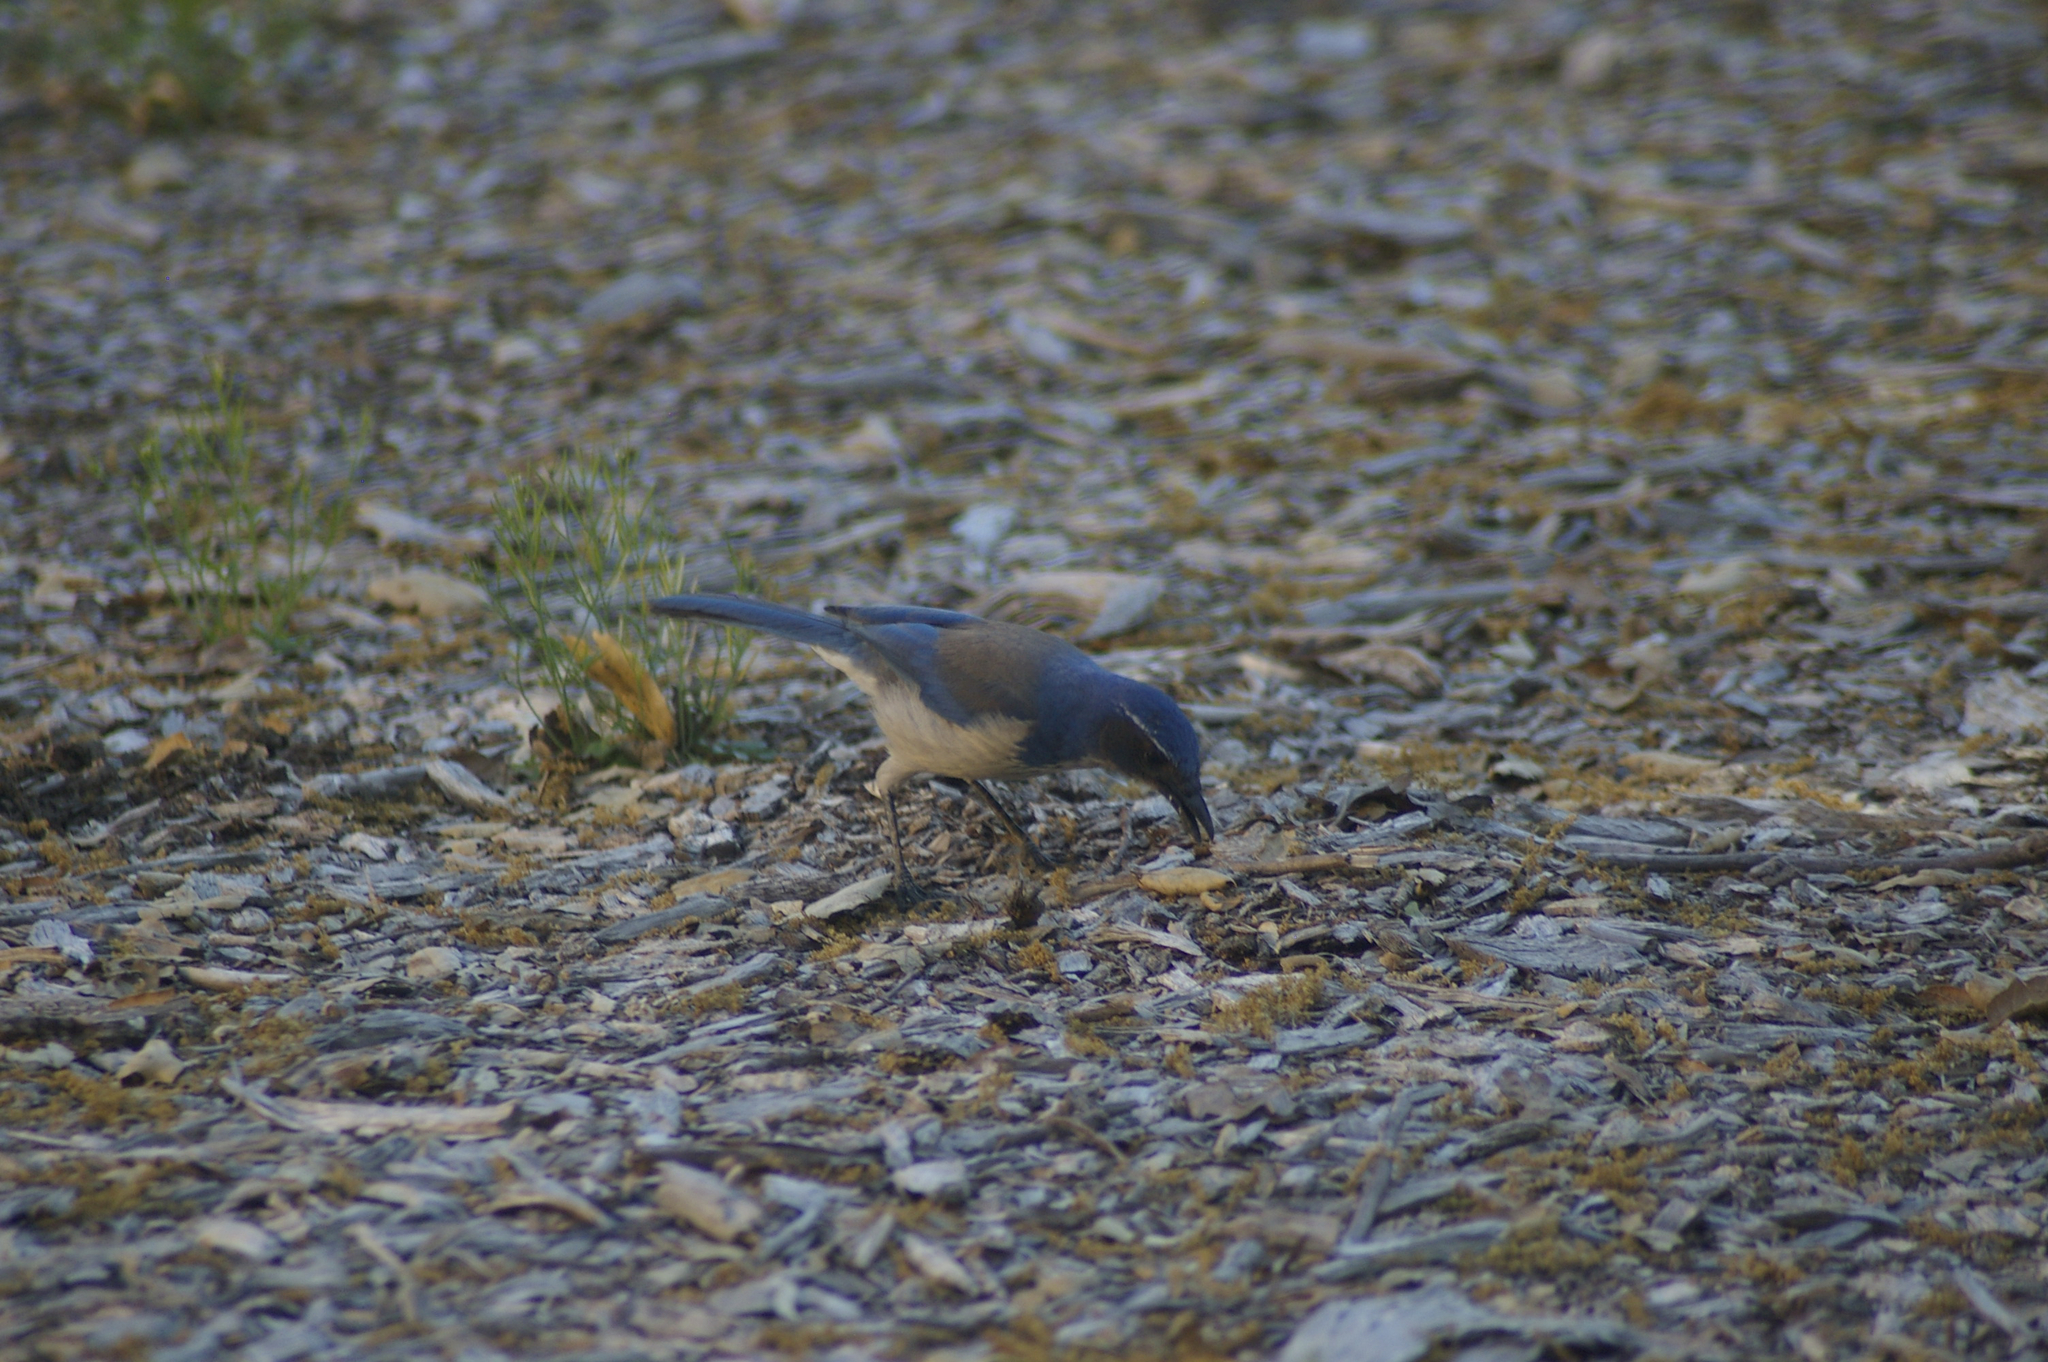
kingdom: Animalia
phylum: Chordata
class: Aves
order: Passeriformes
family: Corvidae
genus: Aphelocoma
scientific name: Aphelocoma californica
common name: California scrub-jay
